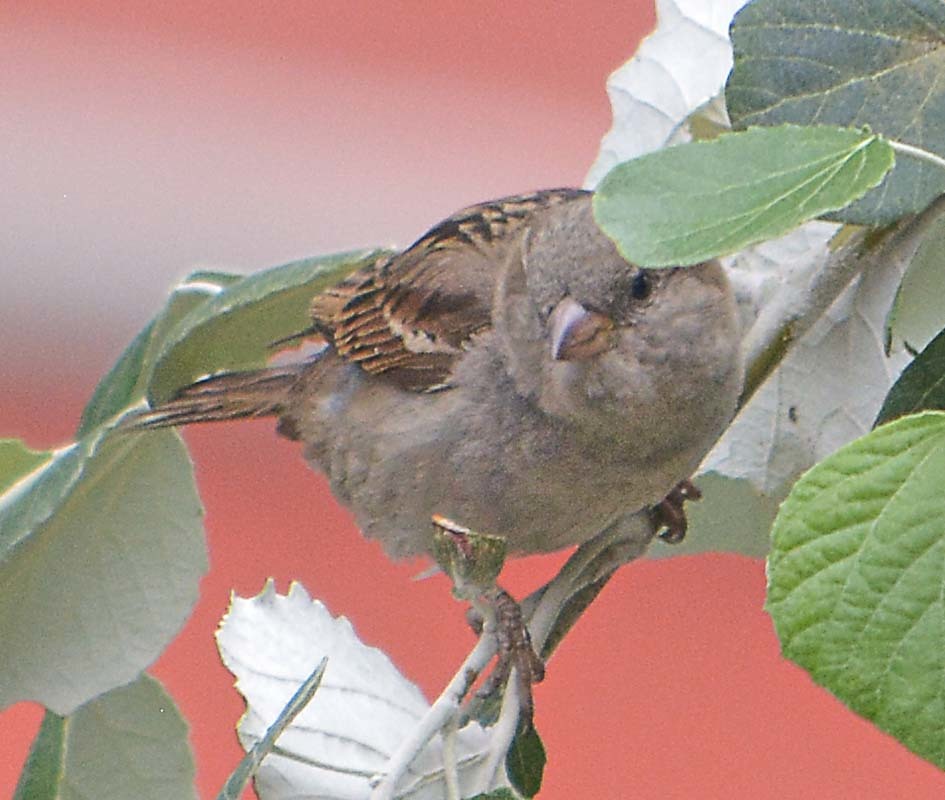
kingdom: Animalia
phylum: Chordata
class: Aves
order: Passeriformes
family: Passeridae
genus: Passer
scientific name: Passer domesticus
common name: House sparrow
